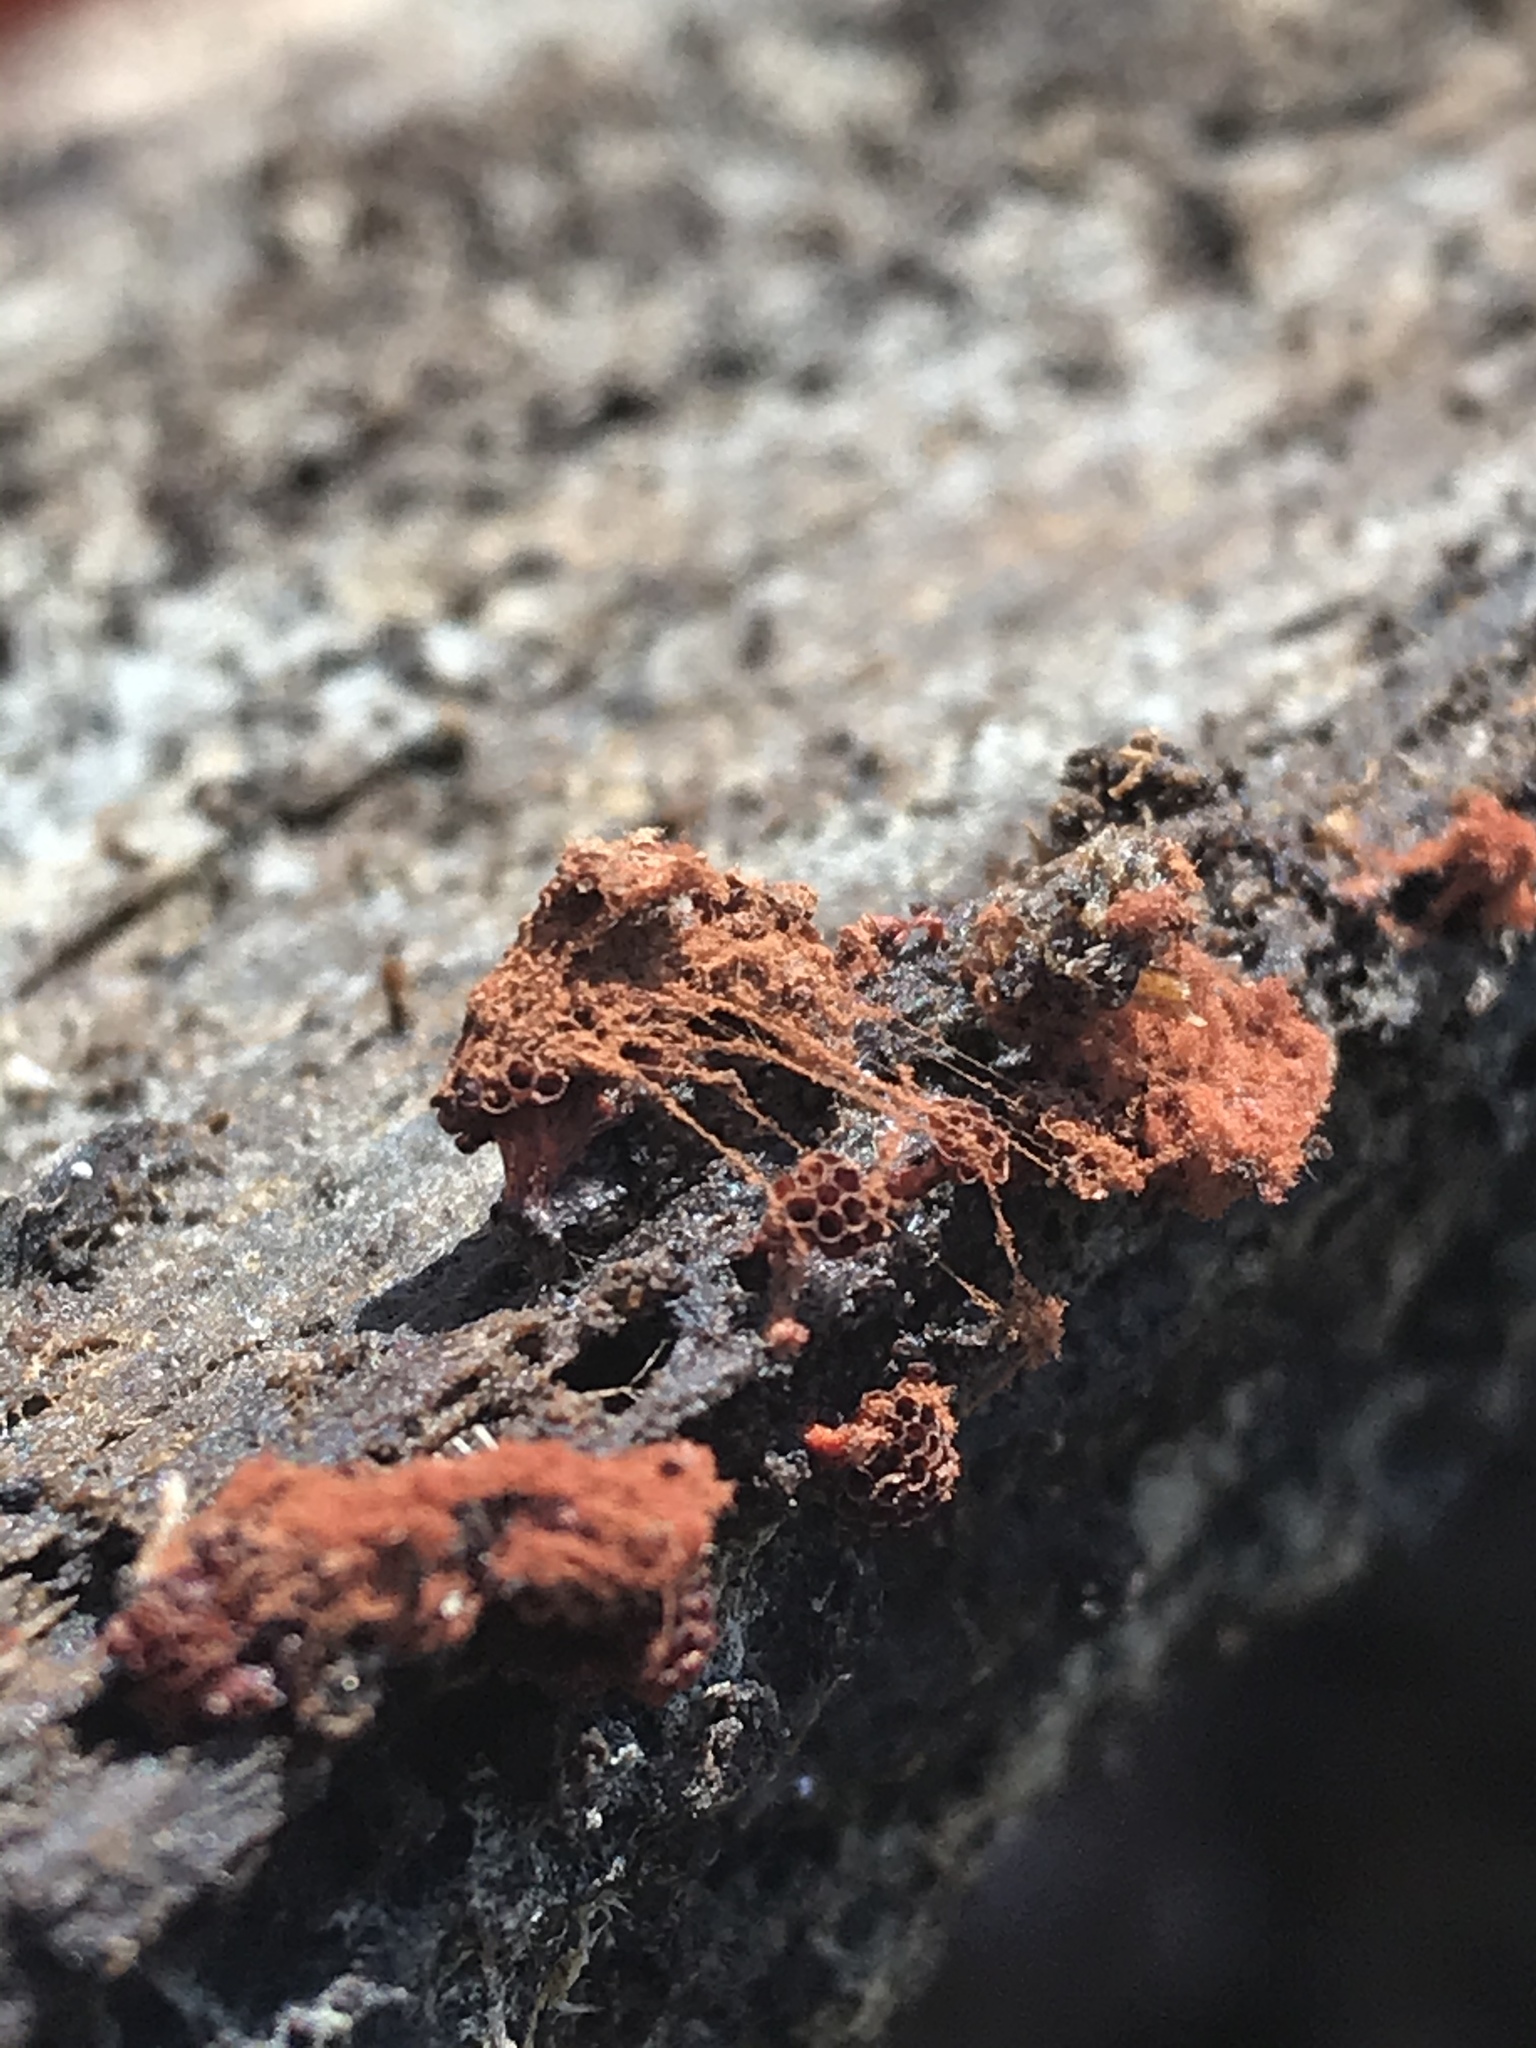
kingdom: Protozoa
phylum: Mycetozoa
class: Myxomycetes
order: Trichiales
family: Trichiaceae
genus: Metatrichia
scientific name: Metatrichia vesparia
